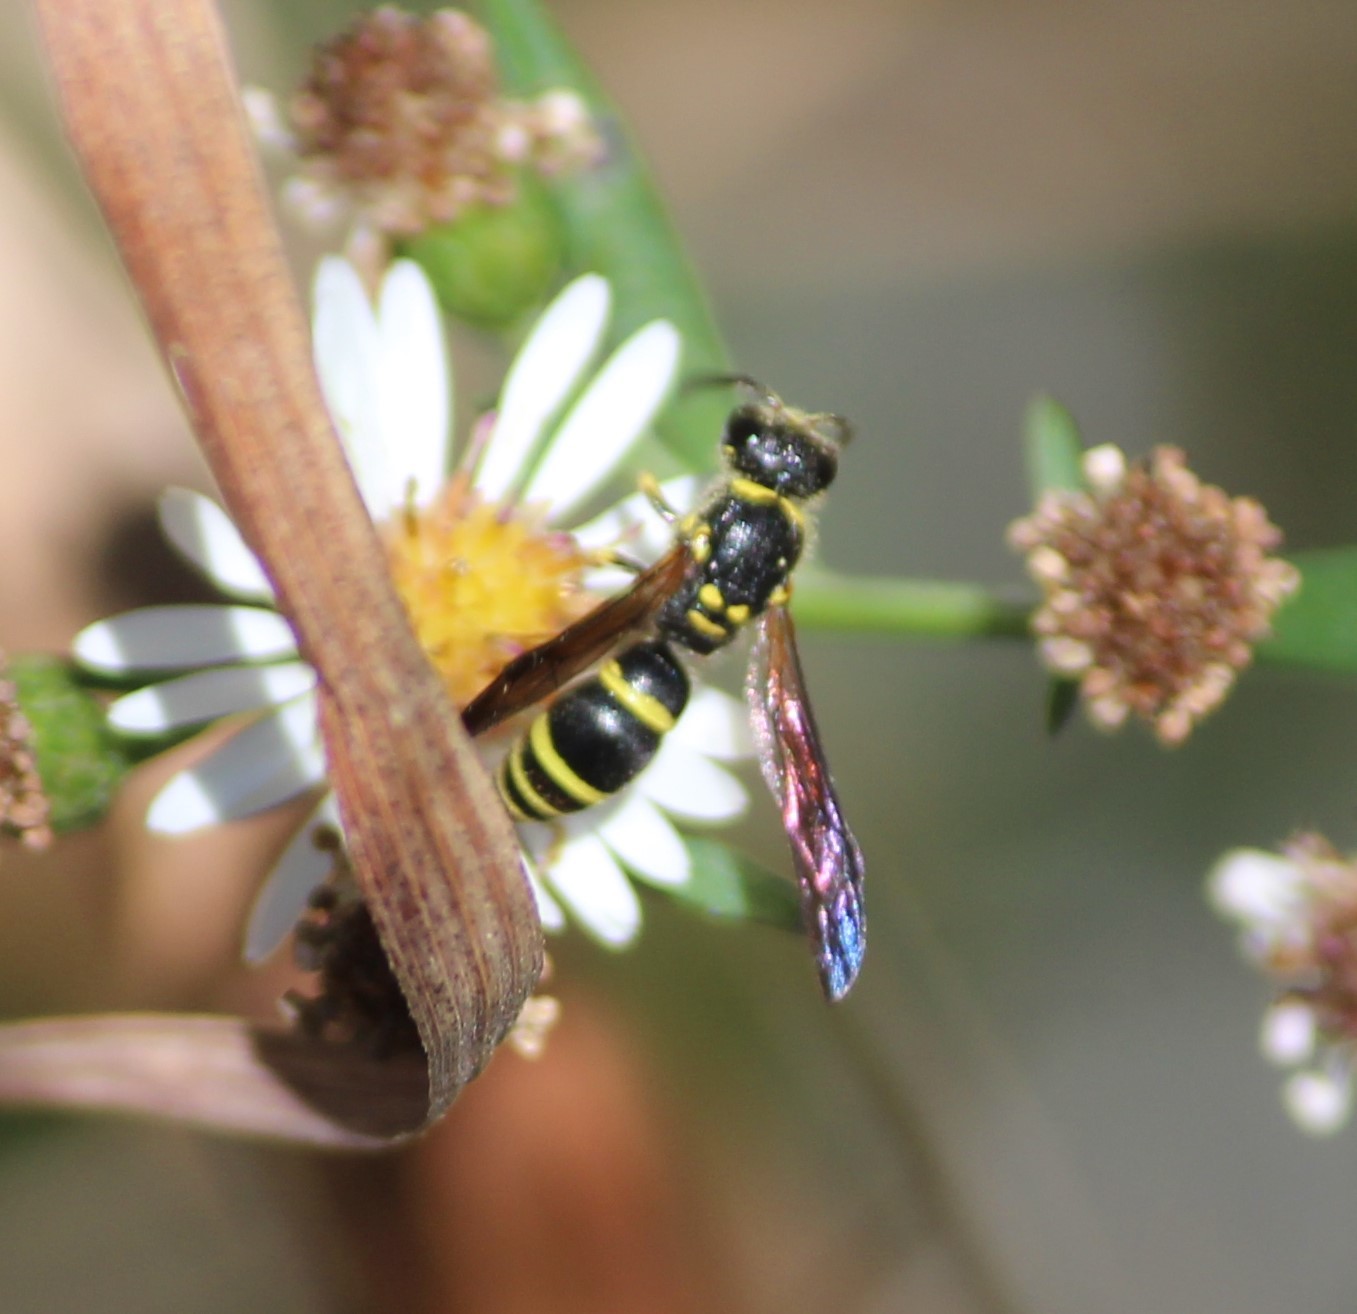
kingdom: Animalia
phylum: Arthropoda
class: Insecta
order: Hymenoptera
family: Vespidae
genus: Ancistrocerus
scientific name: Ancistrocerus adiabatus
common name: Bramble mason wasp
